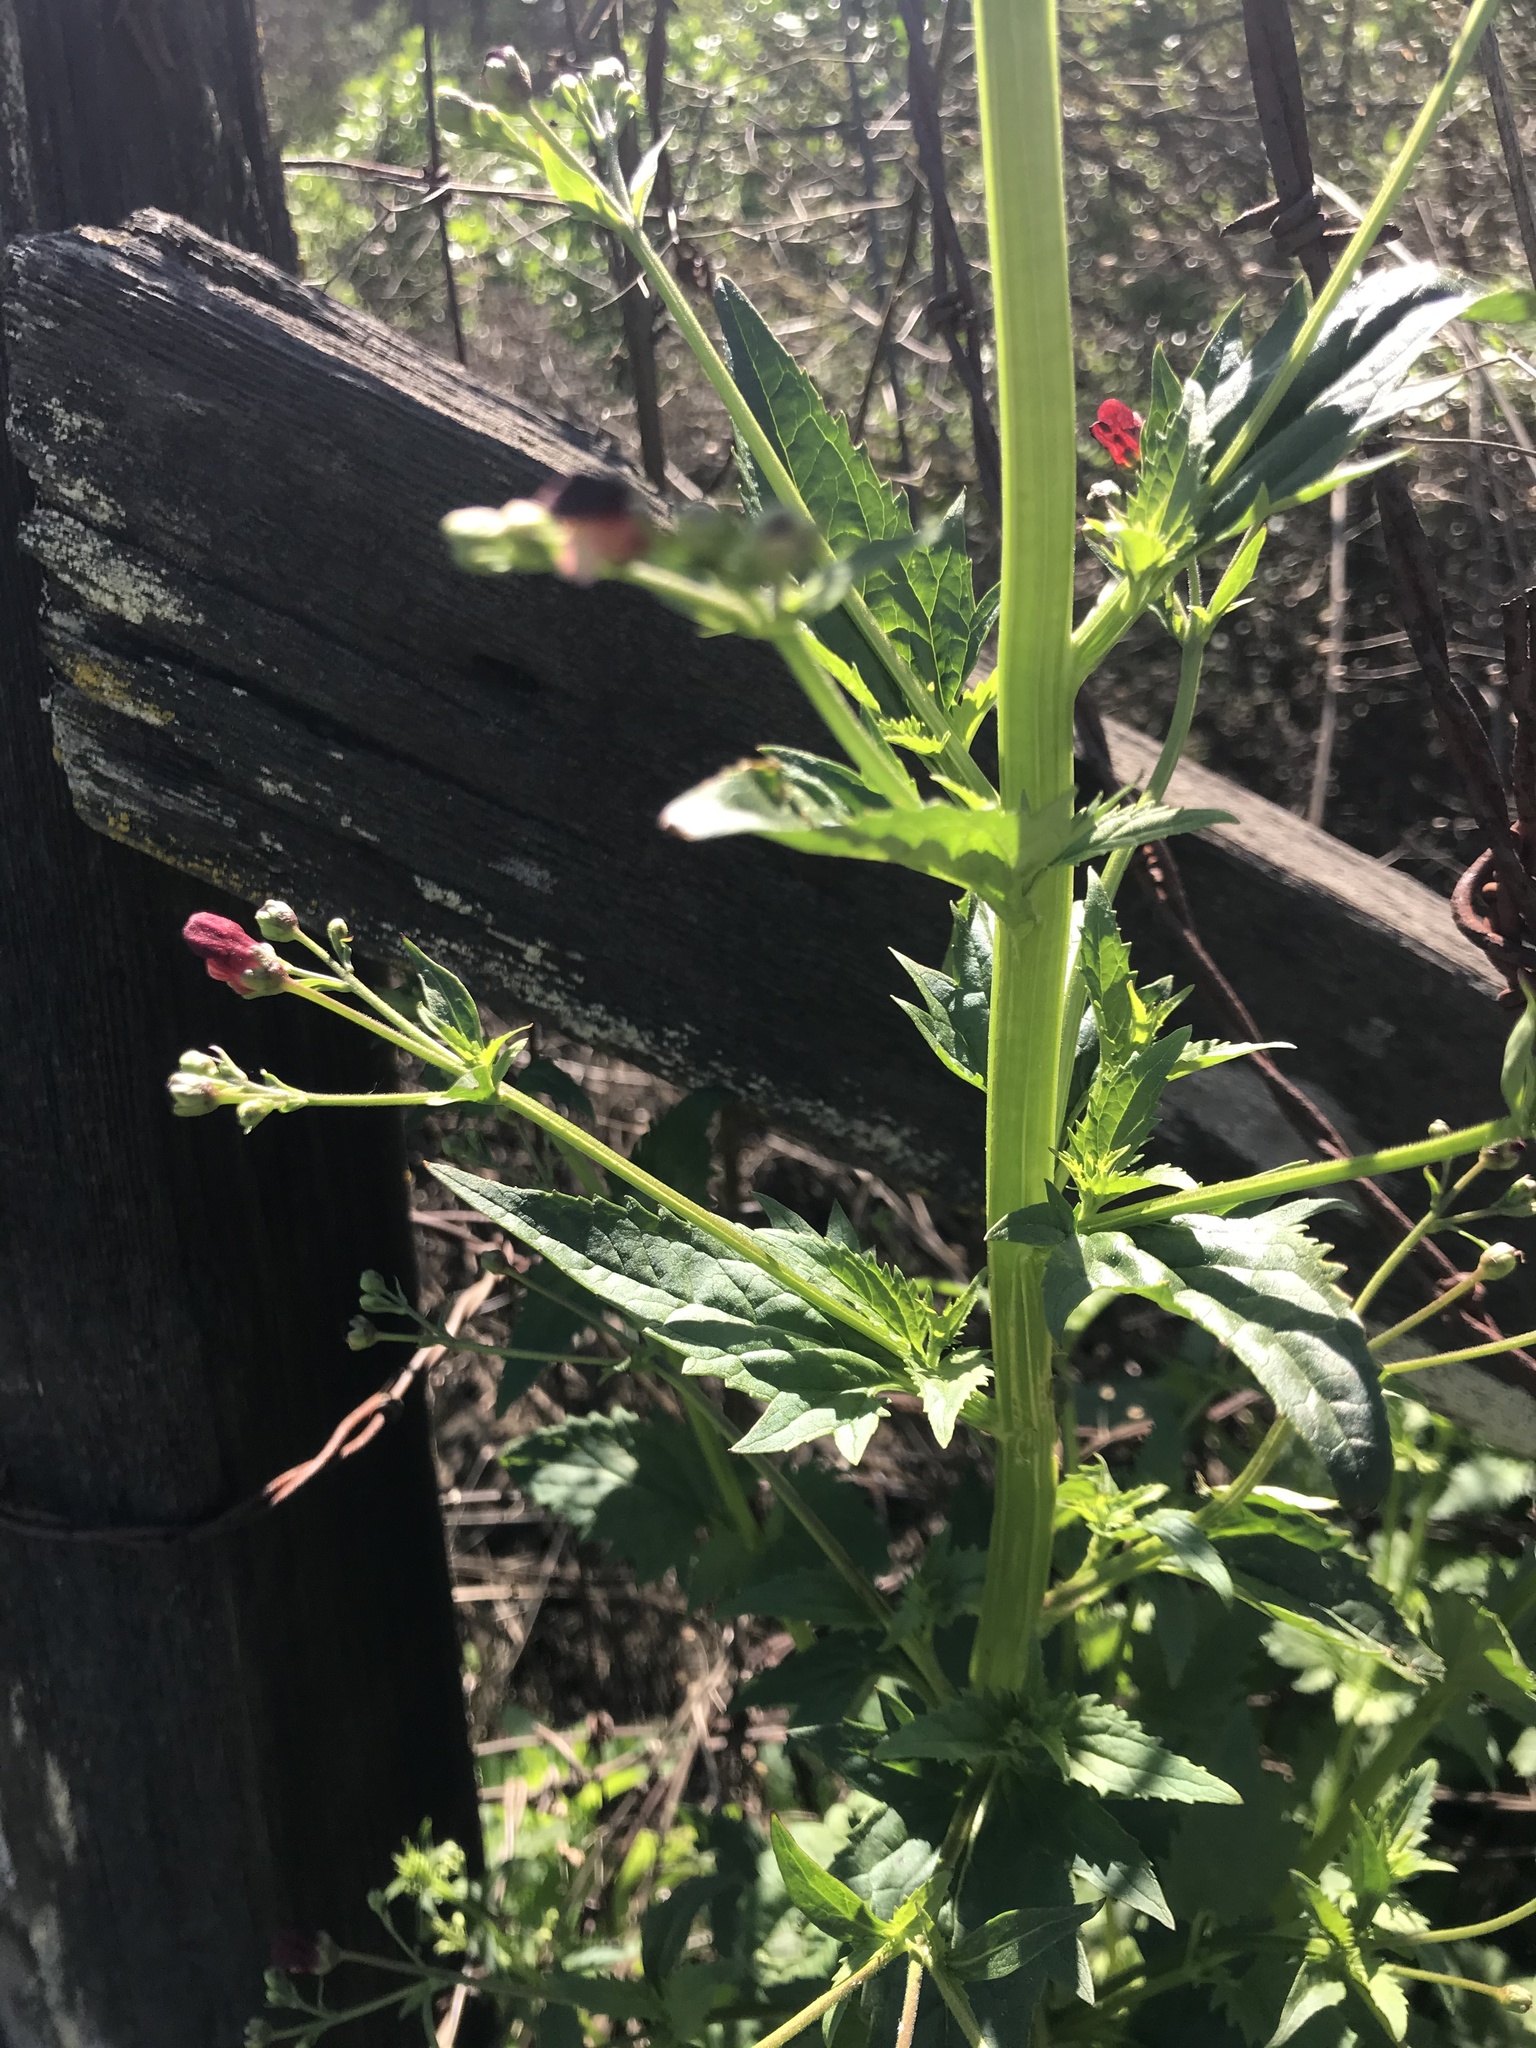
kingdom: Plantae
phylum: Tracheophyta
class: Magnoliopsida
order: Lamiales
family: Scrophulariaceae
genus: Scrophularia
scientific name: Scrophularia californica
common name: California figwort
